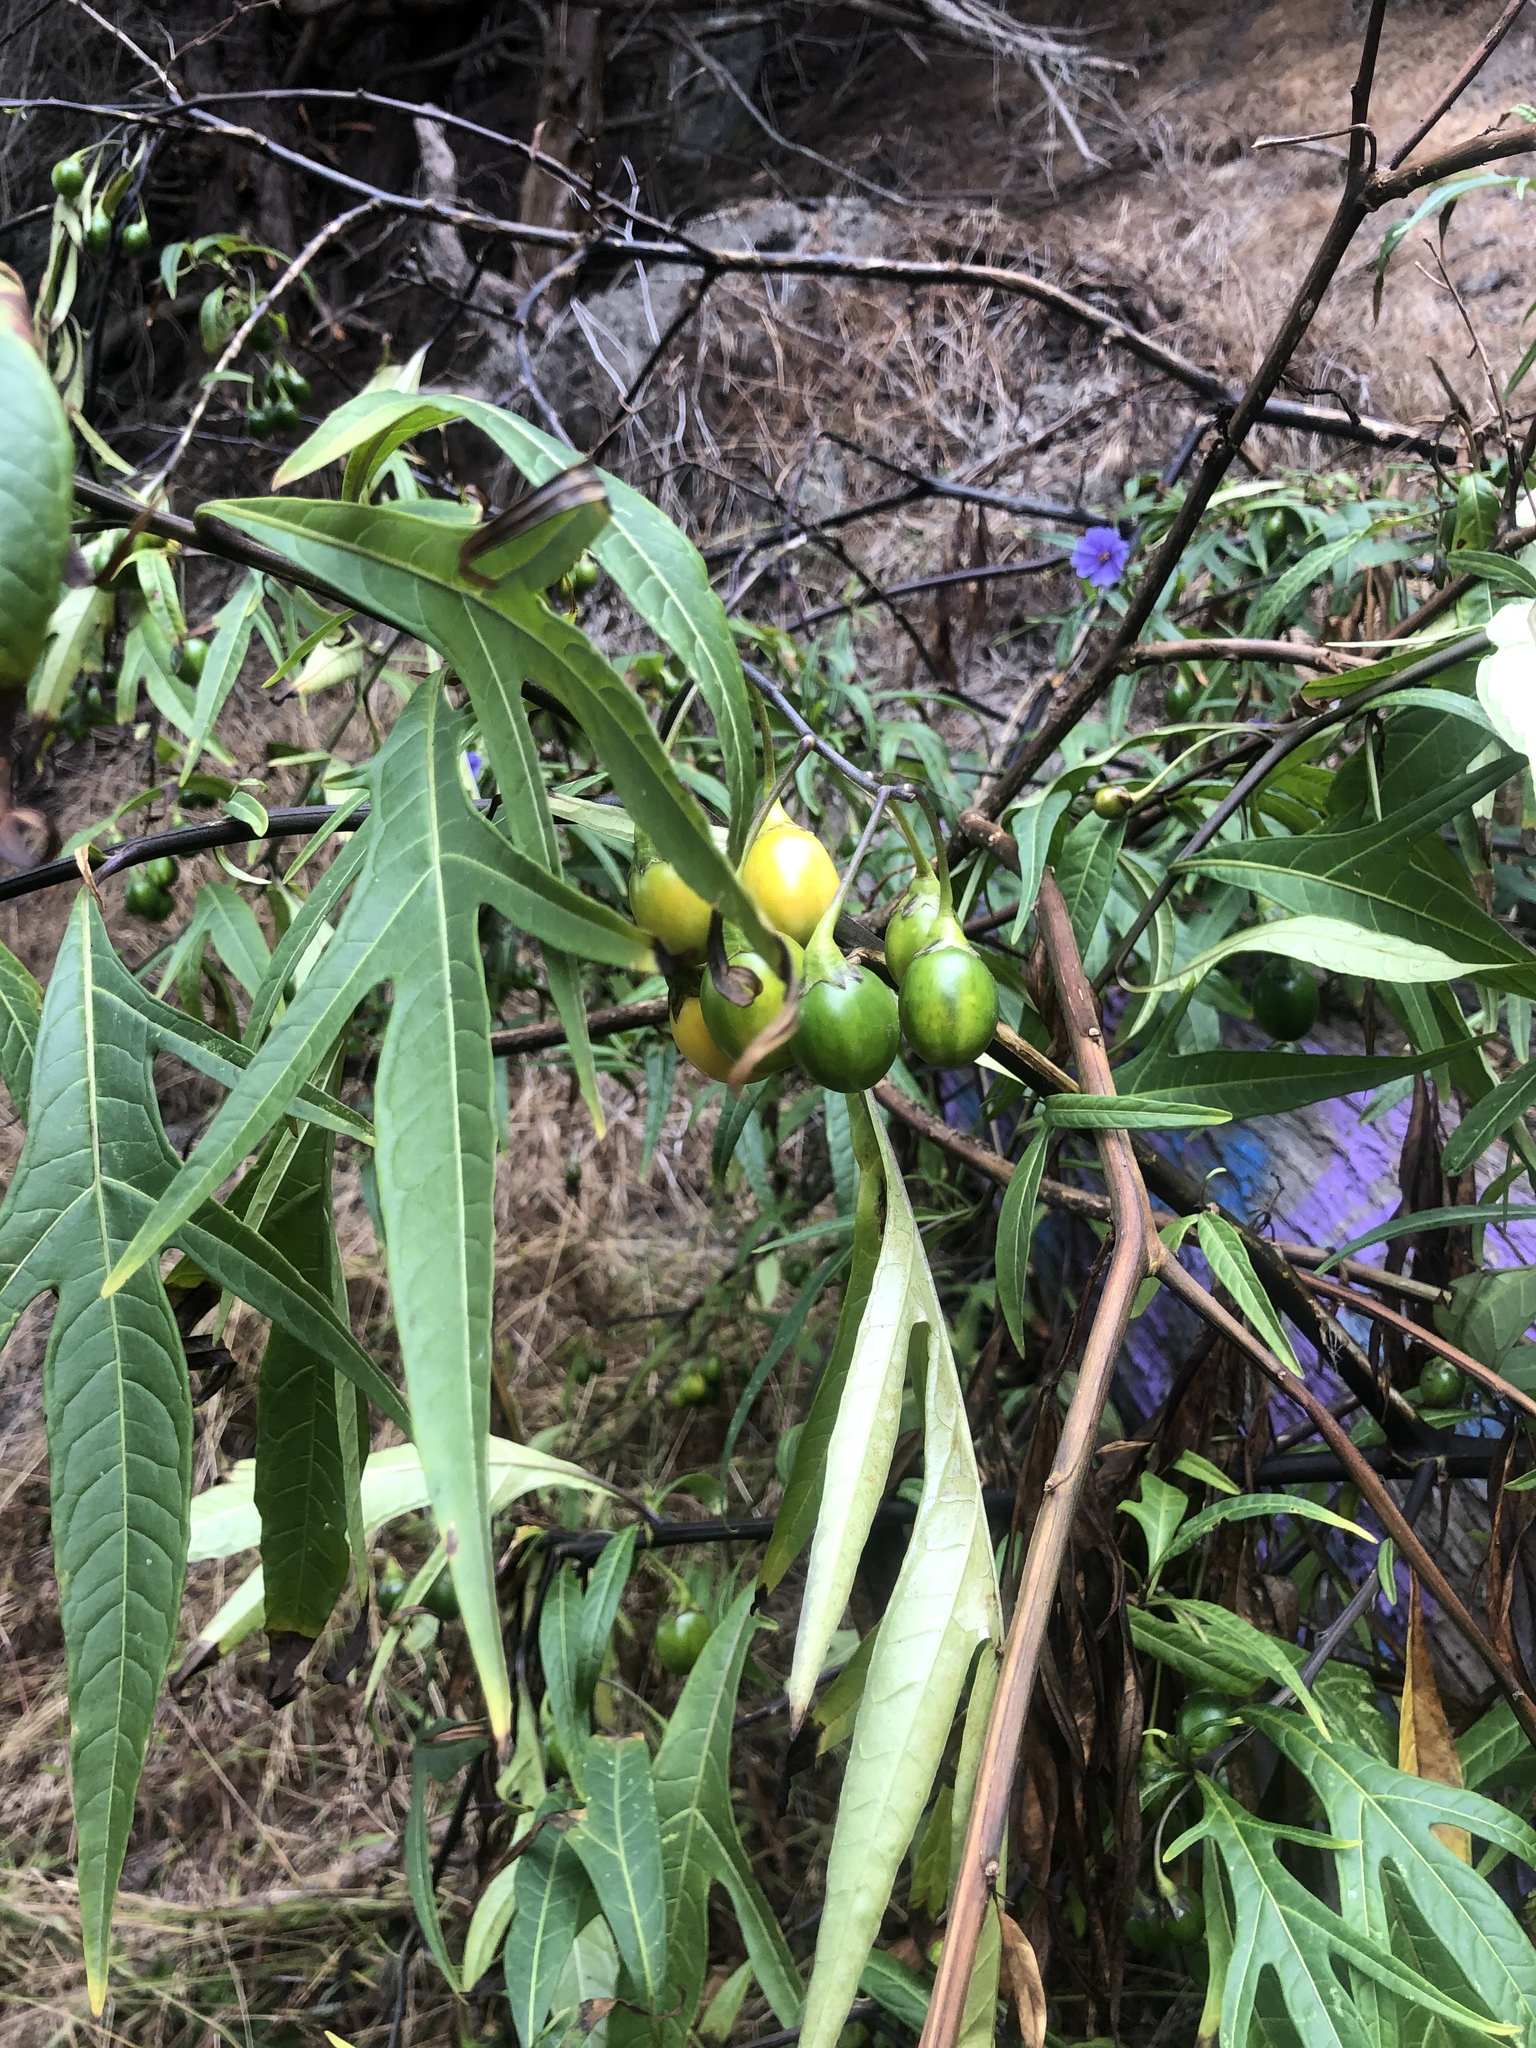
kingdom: Plantae
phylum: Tracheophyta
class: Magnoliopsida
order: Solanales
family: Solanaceae
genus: Solanum
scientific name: Solanum laciniatum
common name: Kangaroo-apple
